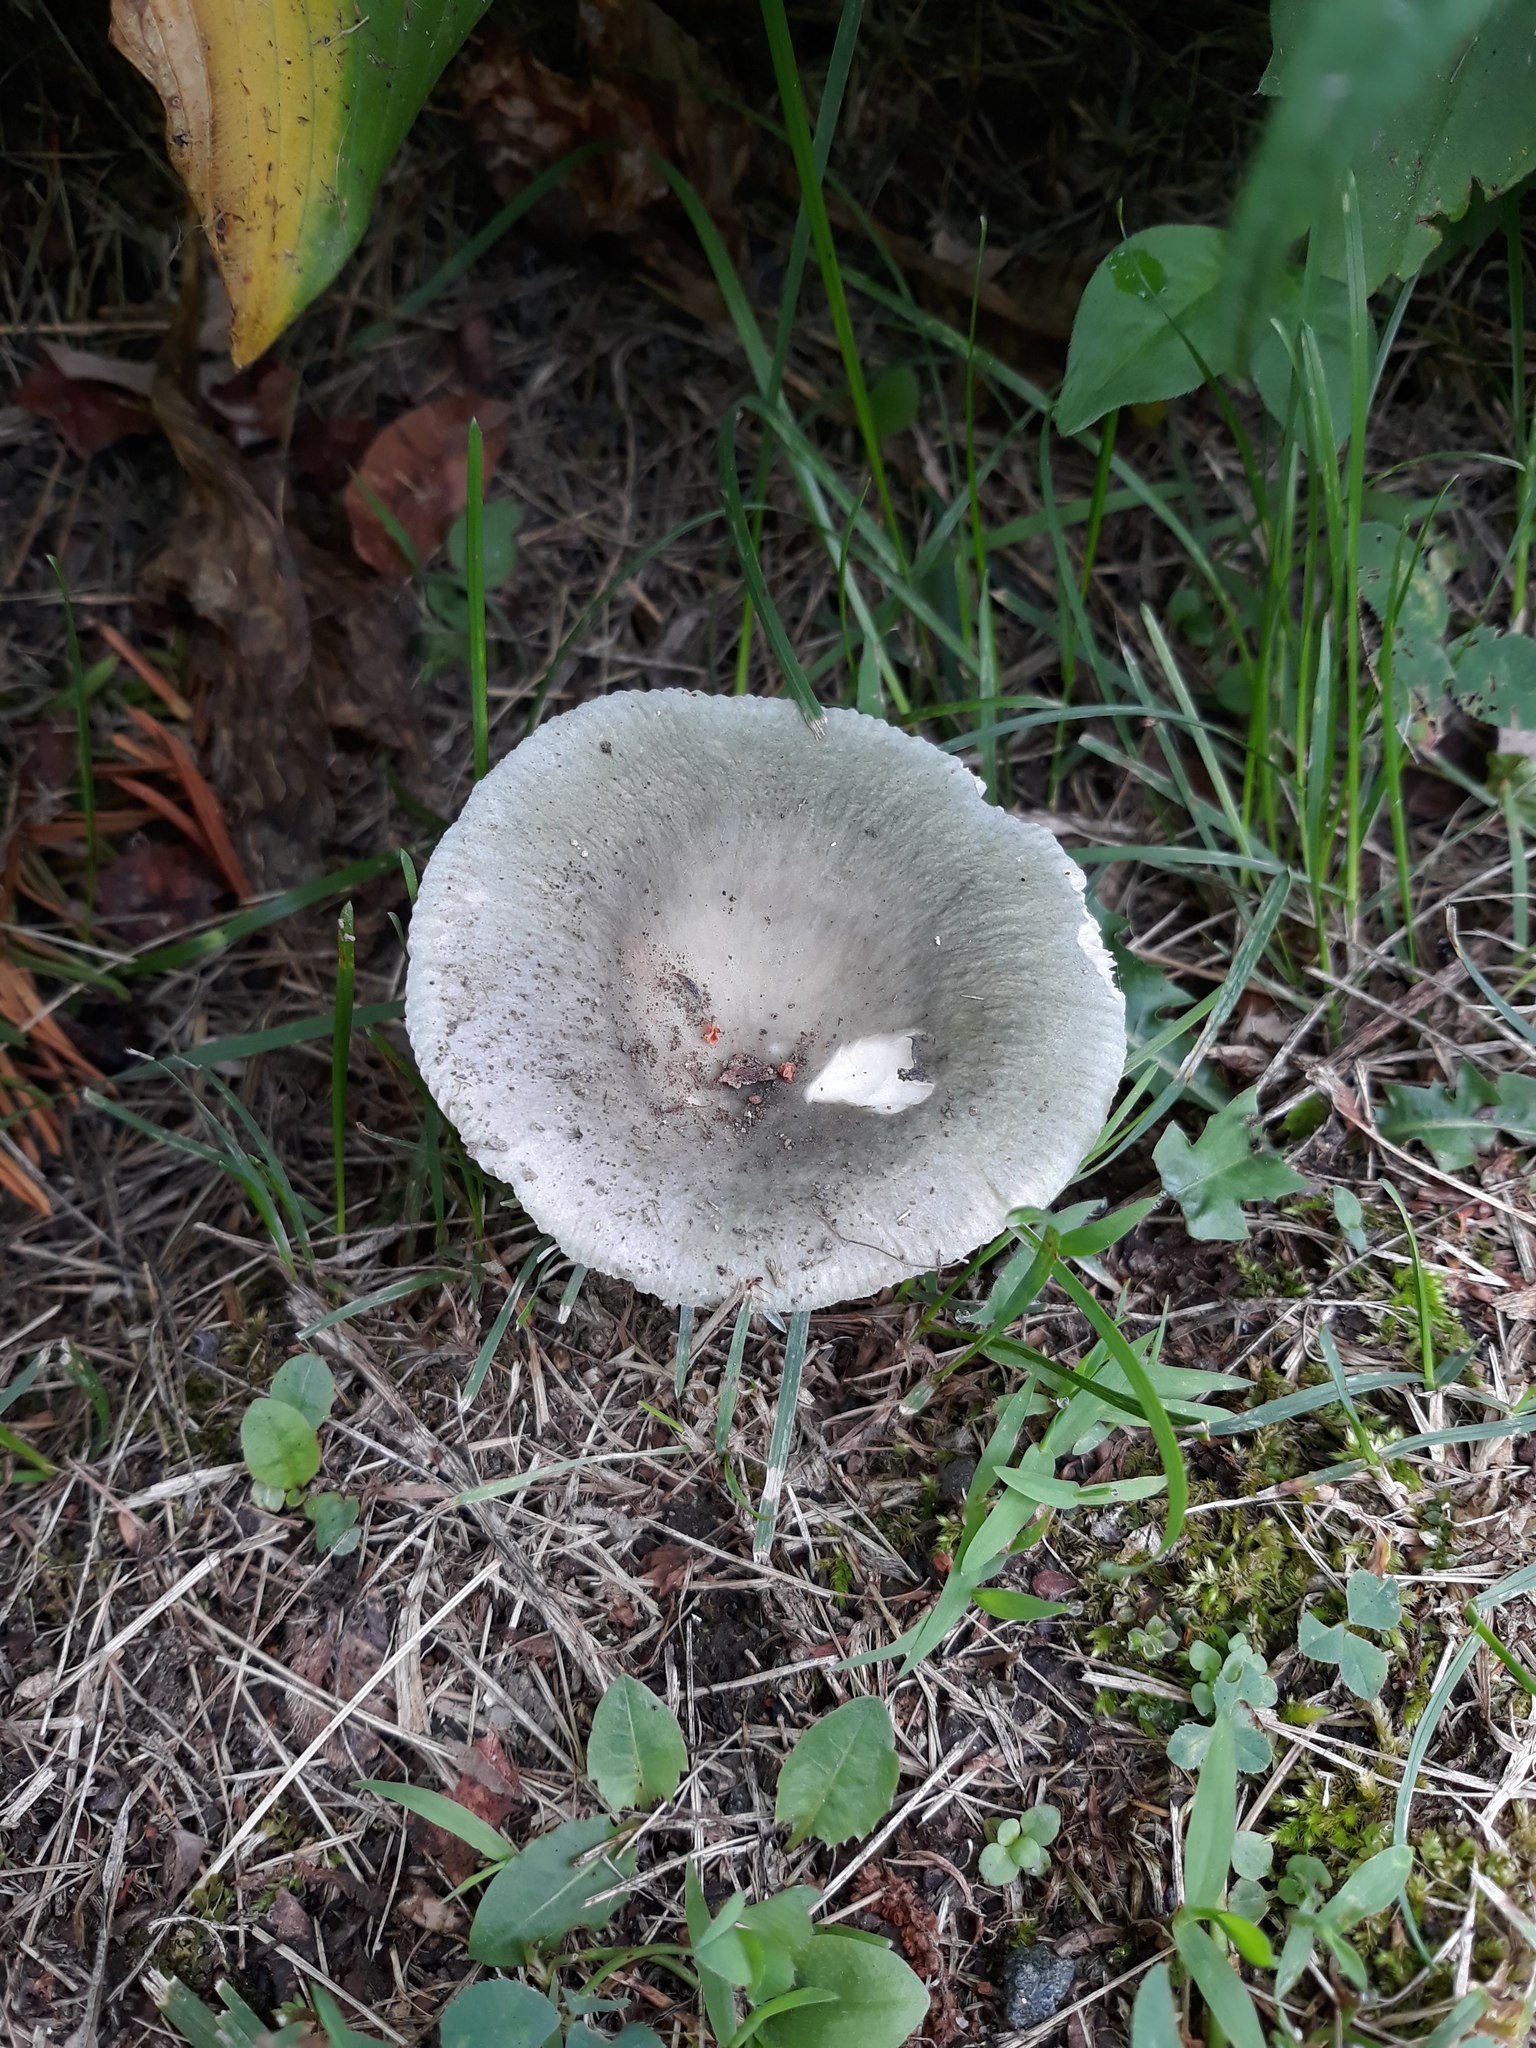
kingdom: Fungi
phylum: Basidiomycota
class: Agaricomycetes
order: Russulales
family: Russulaceae
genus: Russula
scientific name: Russula
